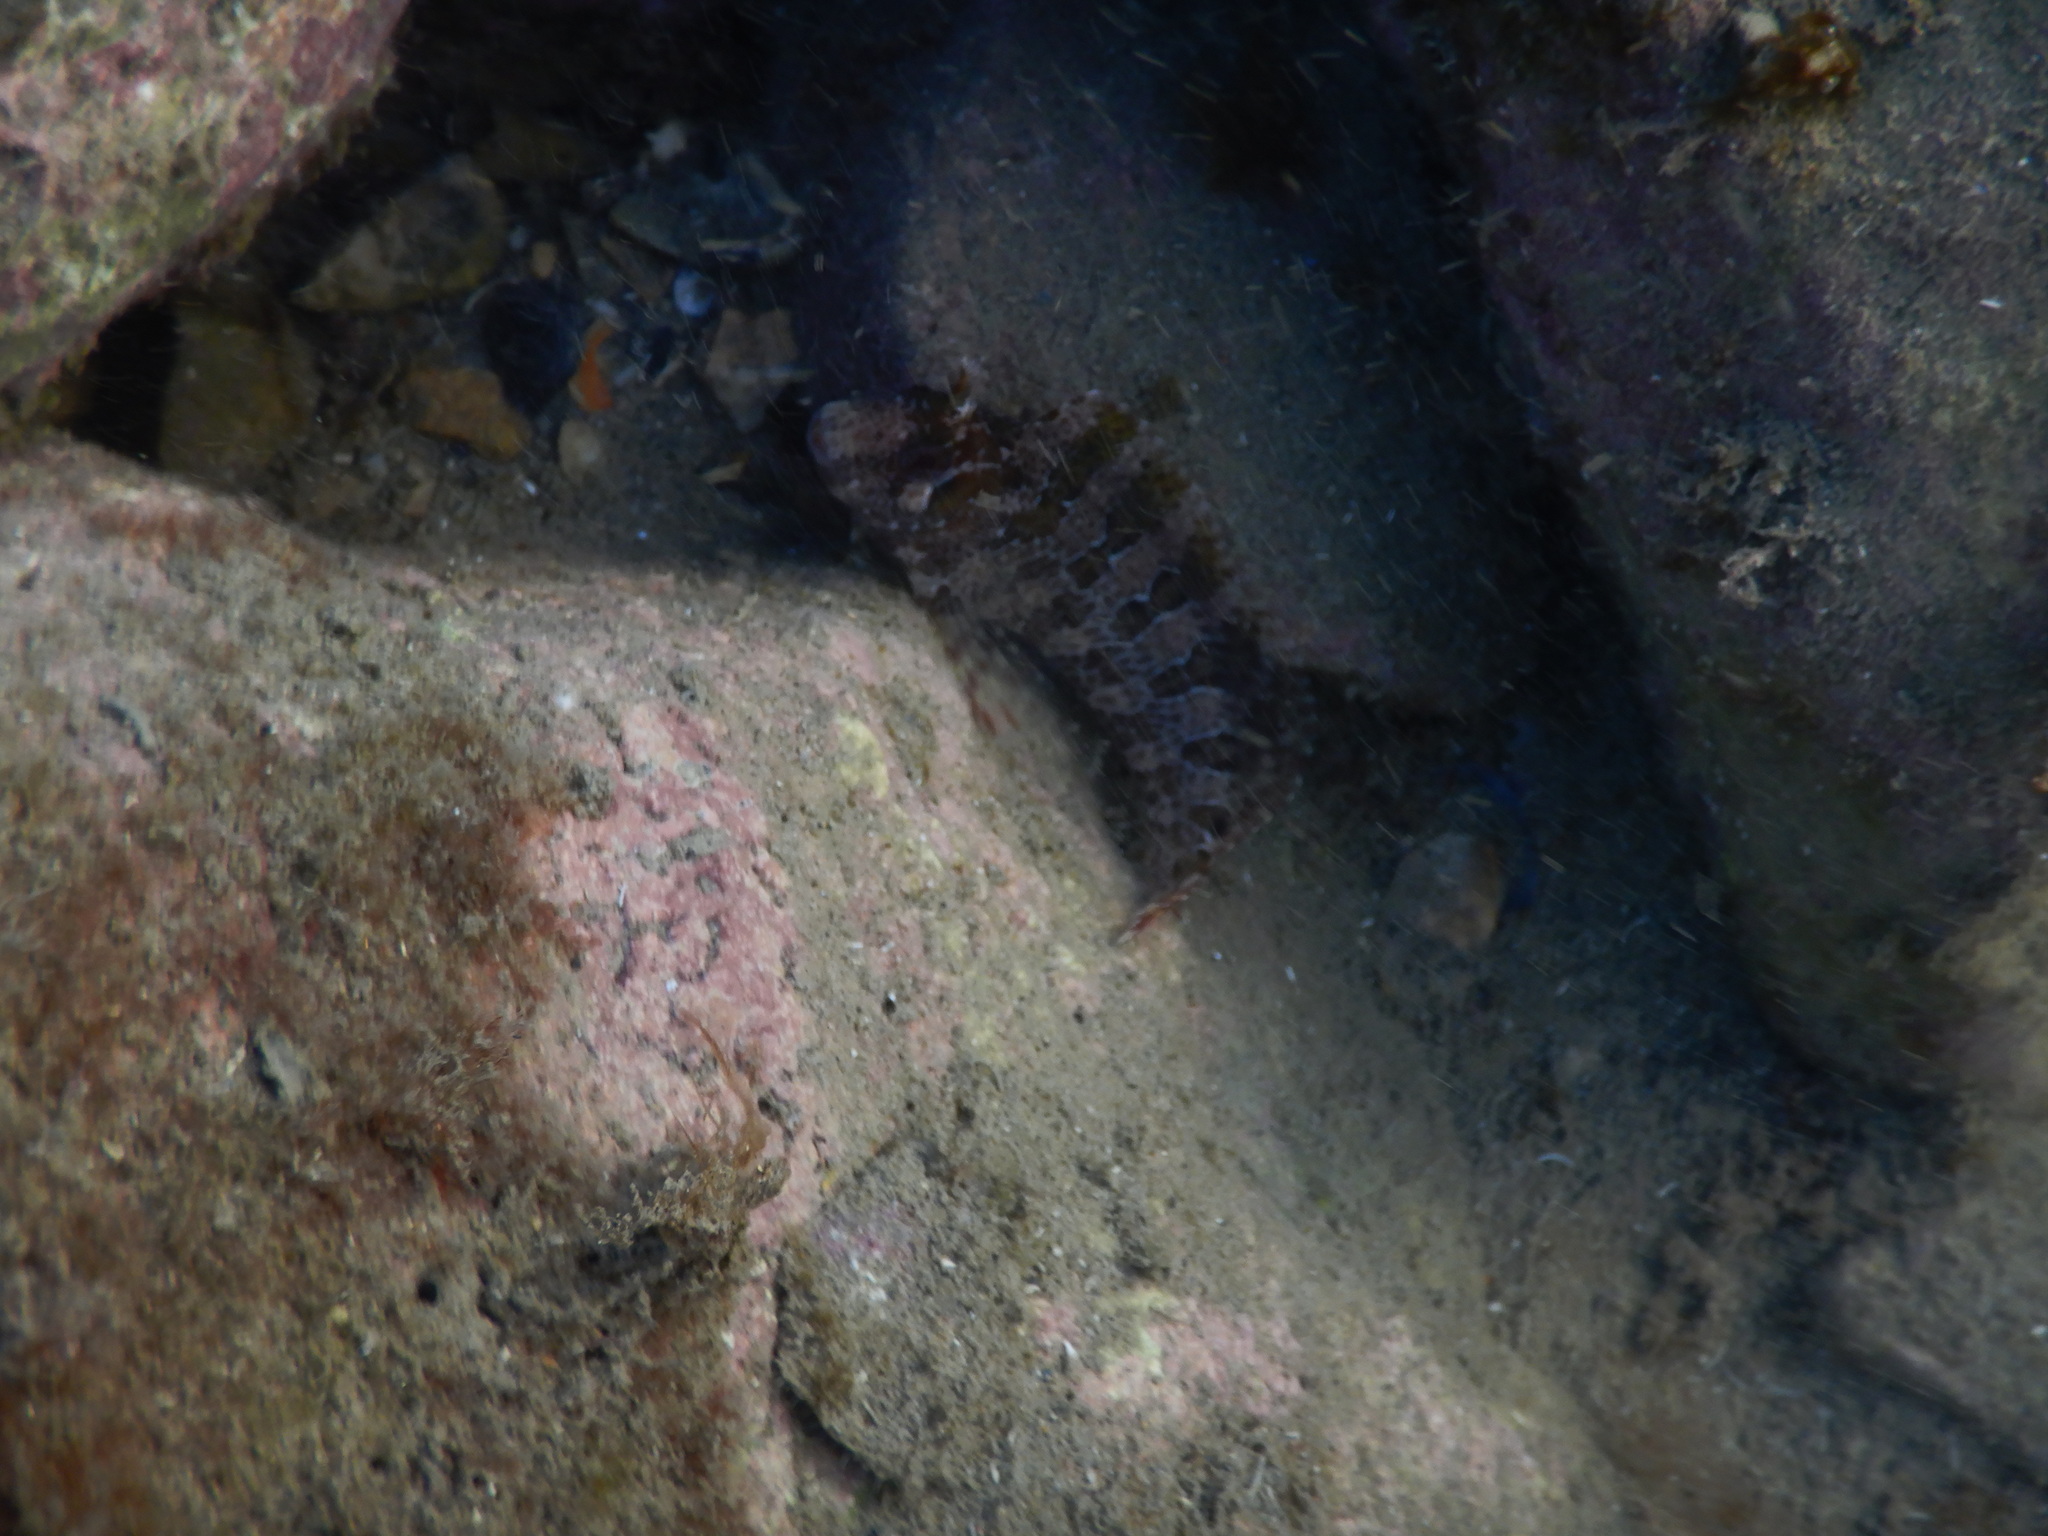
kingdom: Animalia
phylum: Chordata
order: Perciformes
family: Blenniidae
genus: Parablennius
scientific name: Parablennius gattorugine
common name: Tompot blenny
